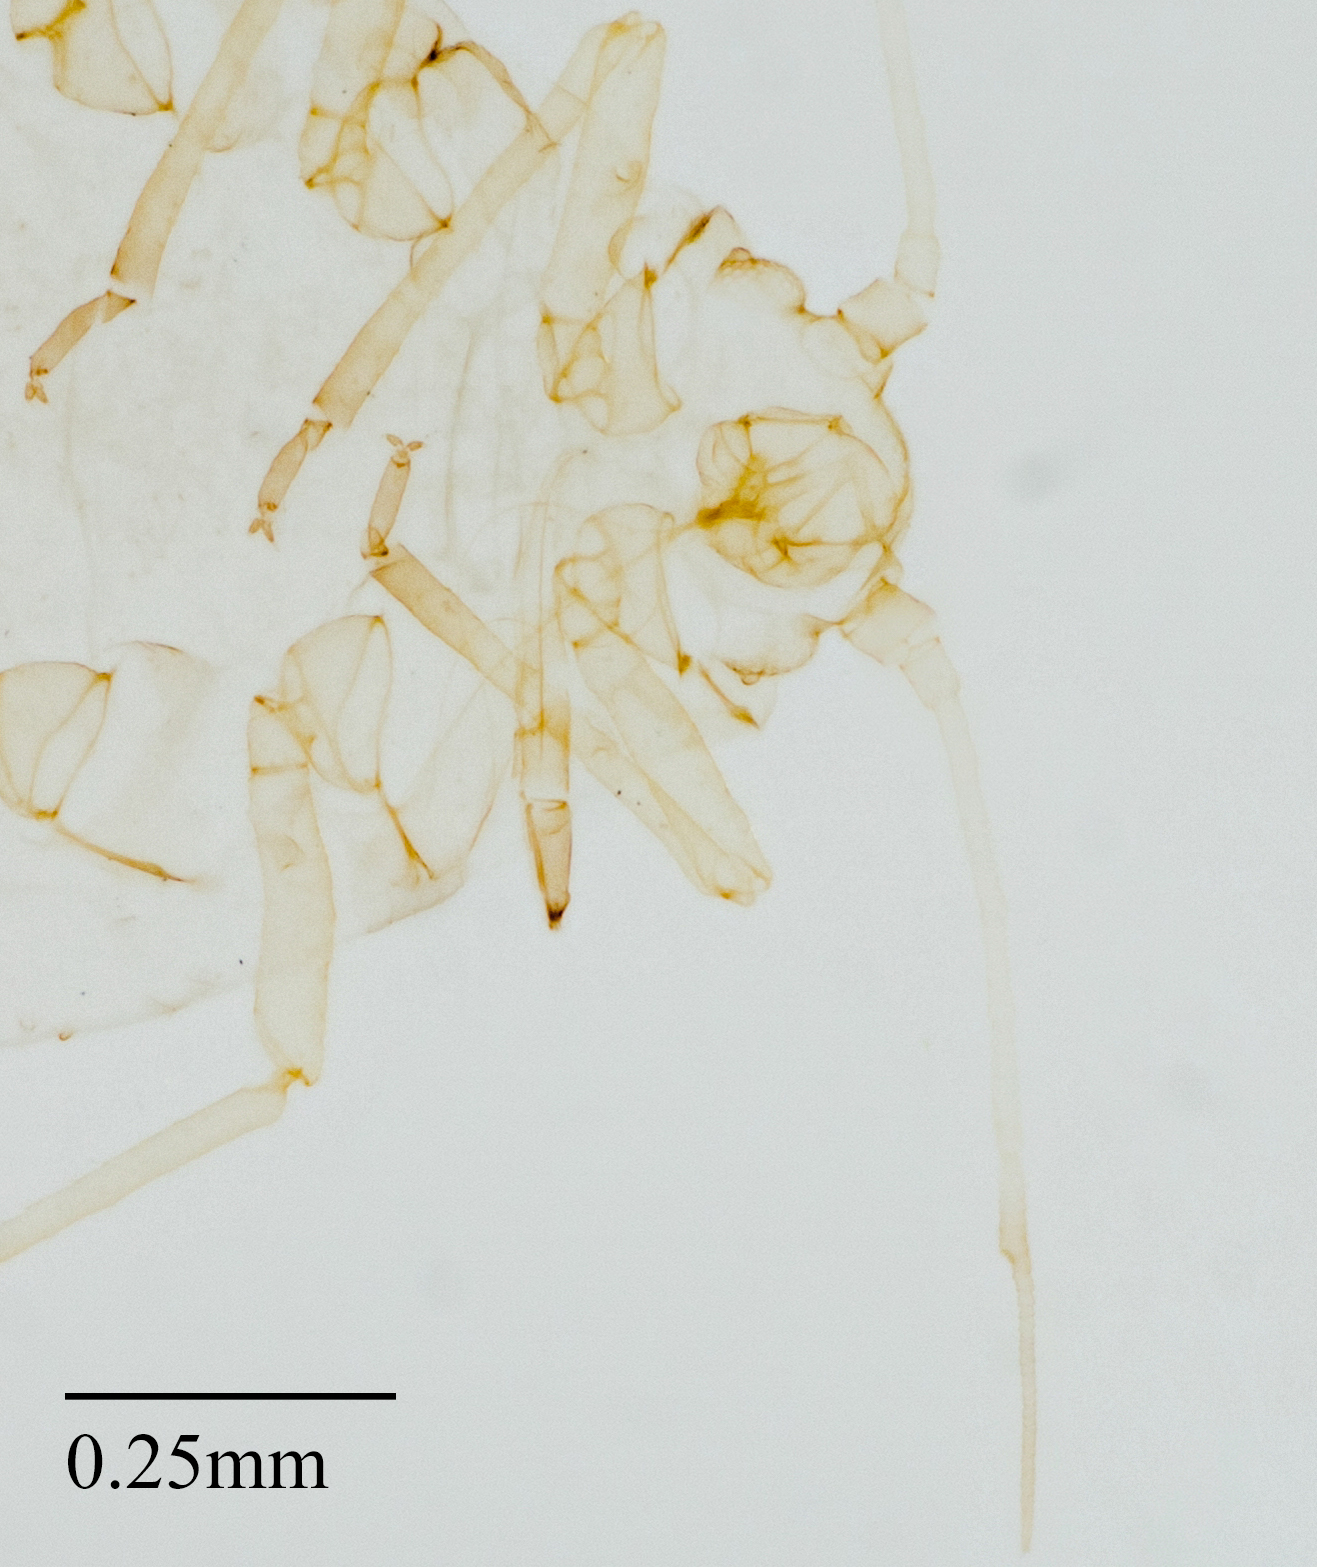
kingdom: Animalia
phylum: Arthropoda
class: Insecta
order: Hemiptera
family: Aphididae
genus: Aphis
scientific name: Aphis gossypii
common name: Melon aphid
